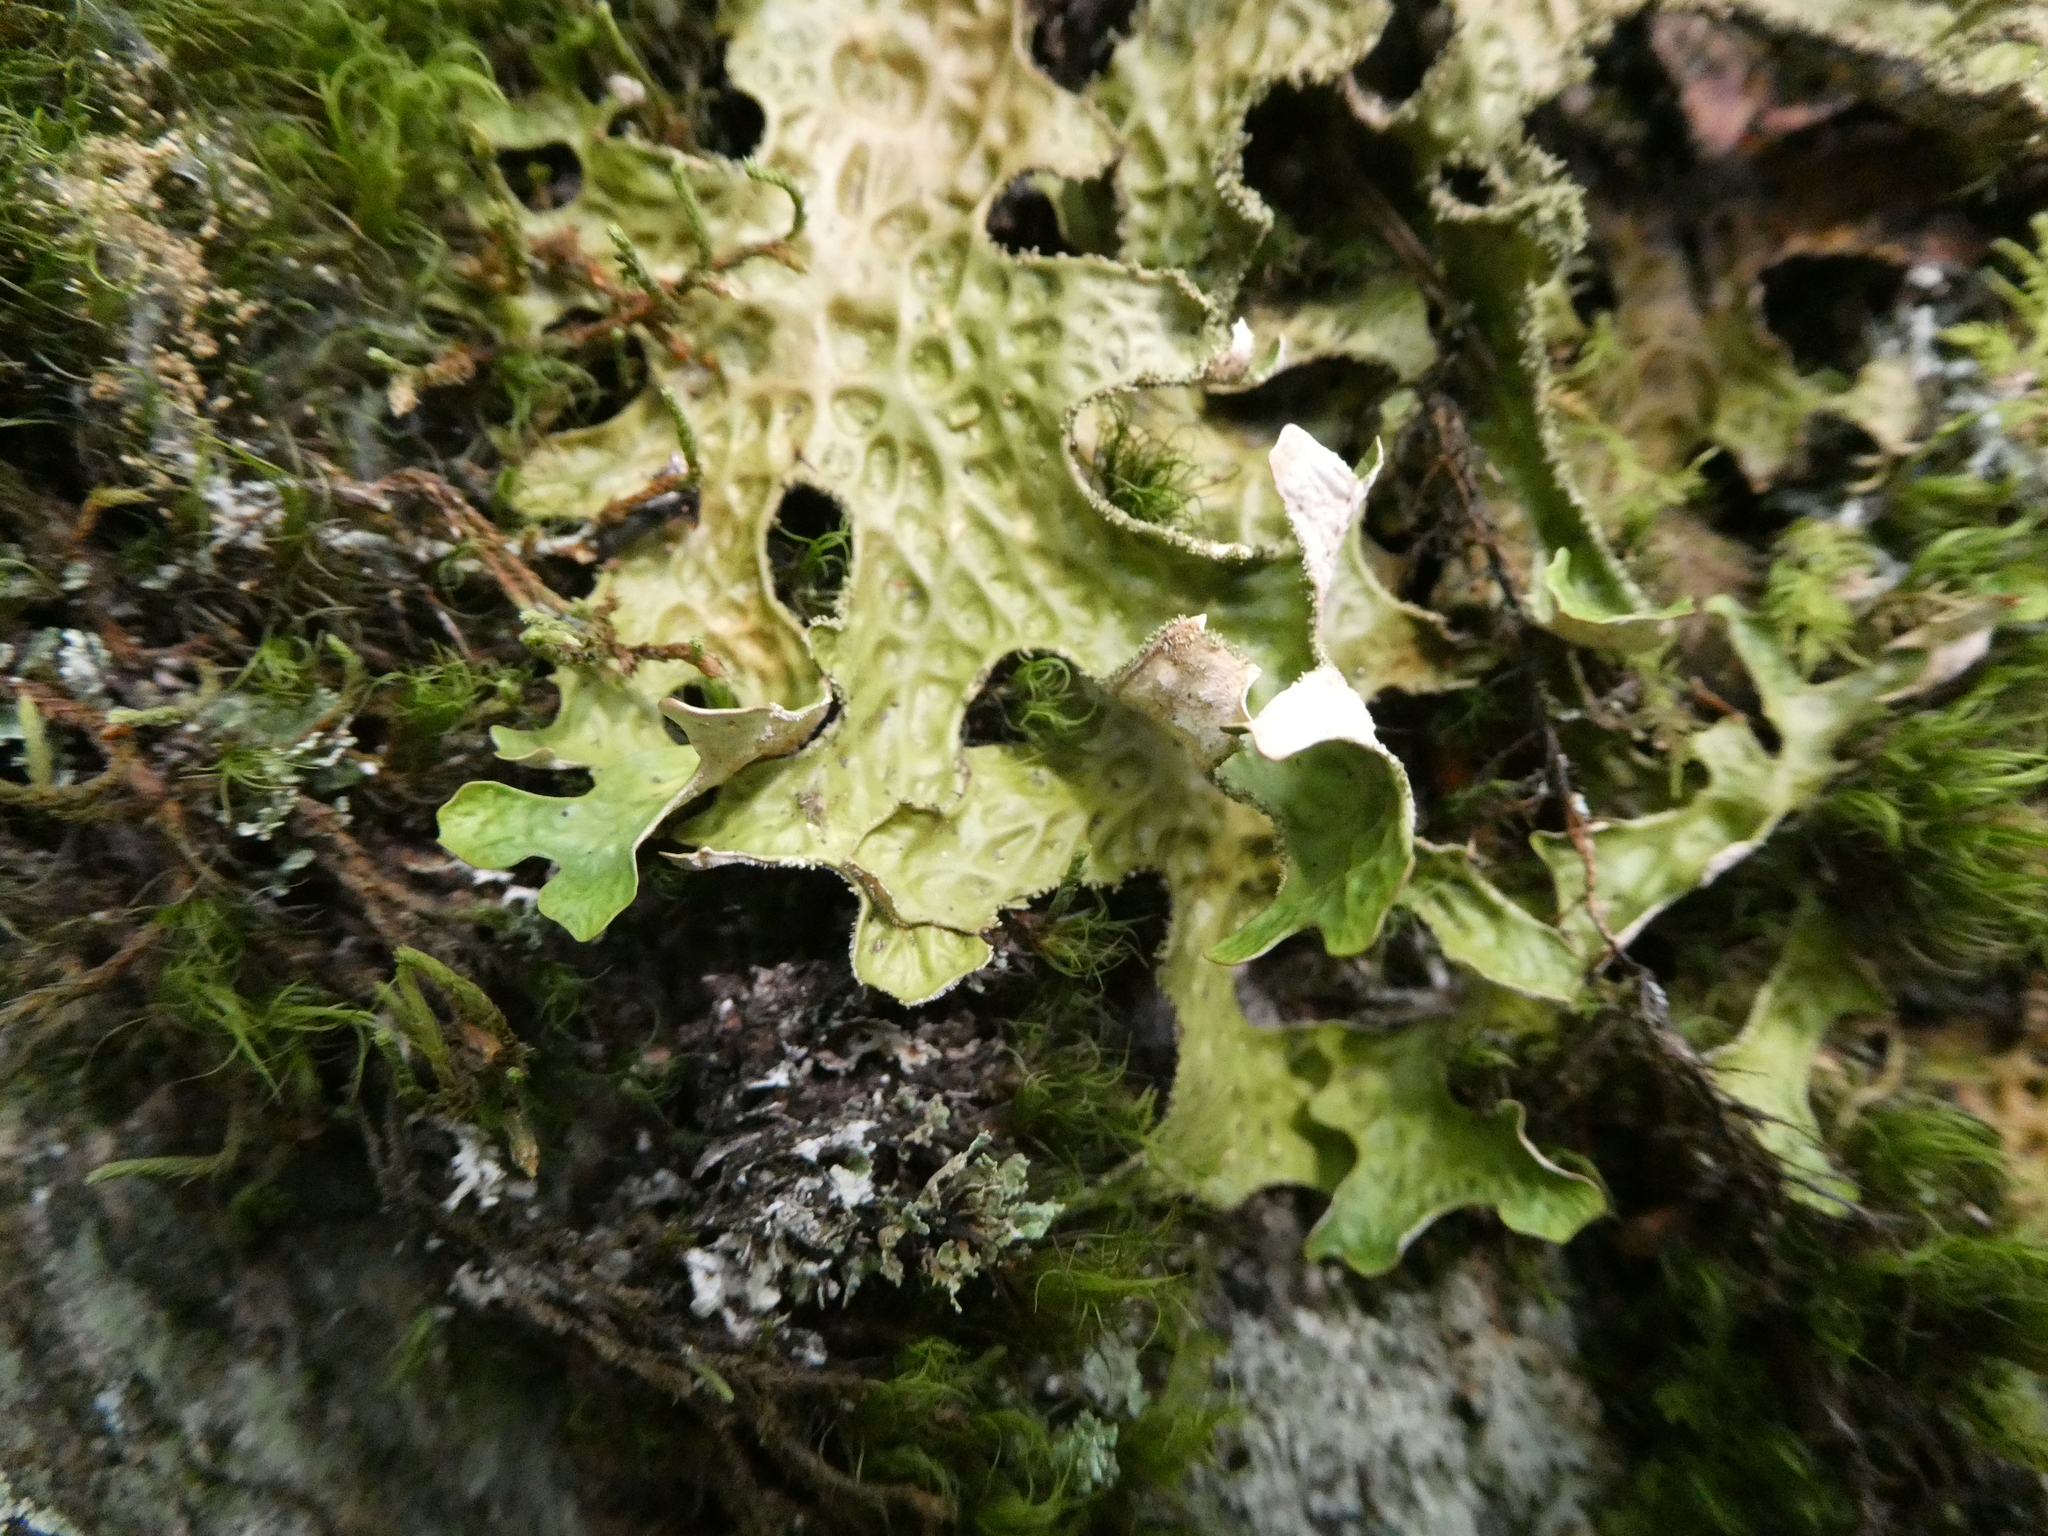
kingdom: Fungi
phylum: Ascomycota
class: Lecanoromycetes
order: Peltigerales
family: Lobariaceae
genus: Lobaria
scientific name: Lobaria pulmonaria
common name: Lungwort
